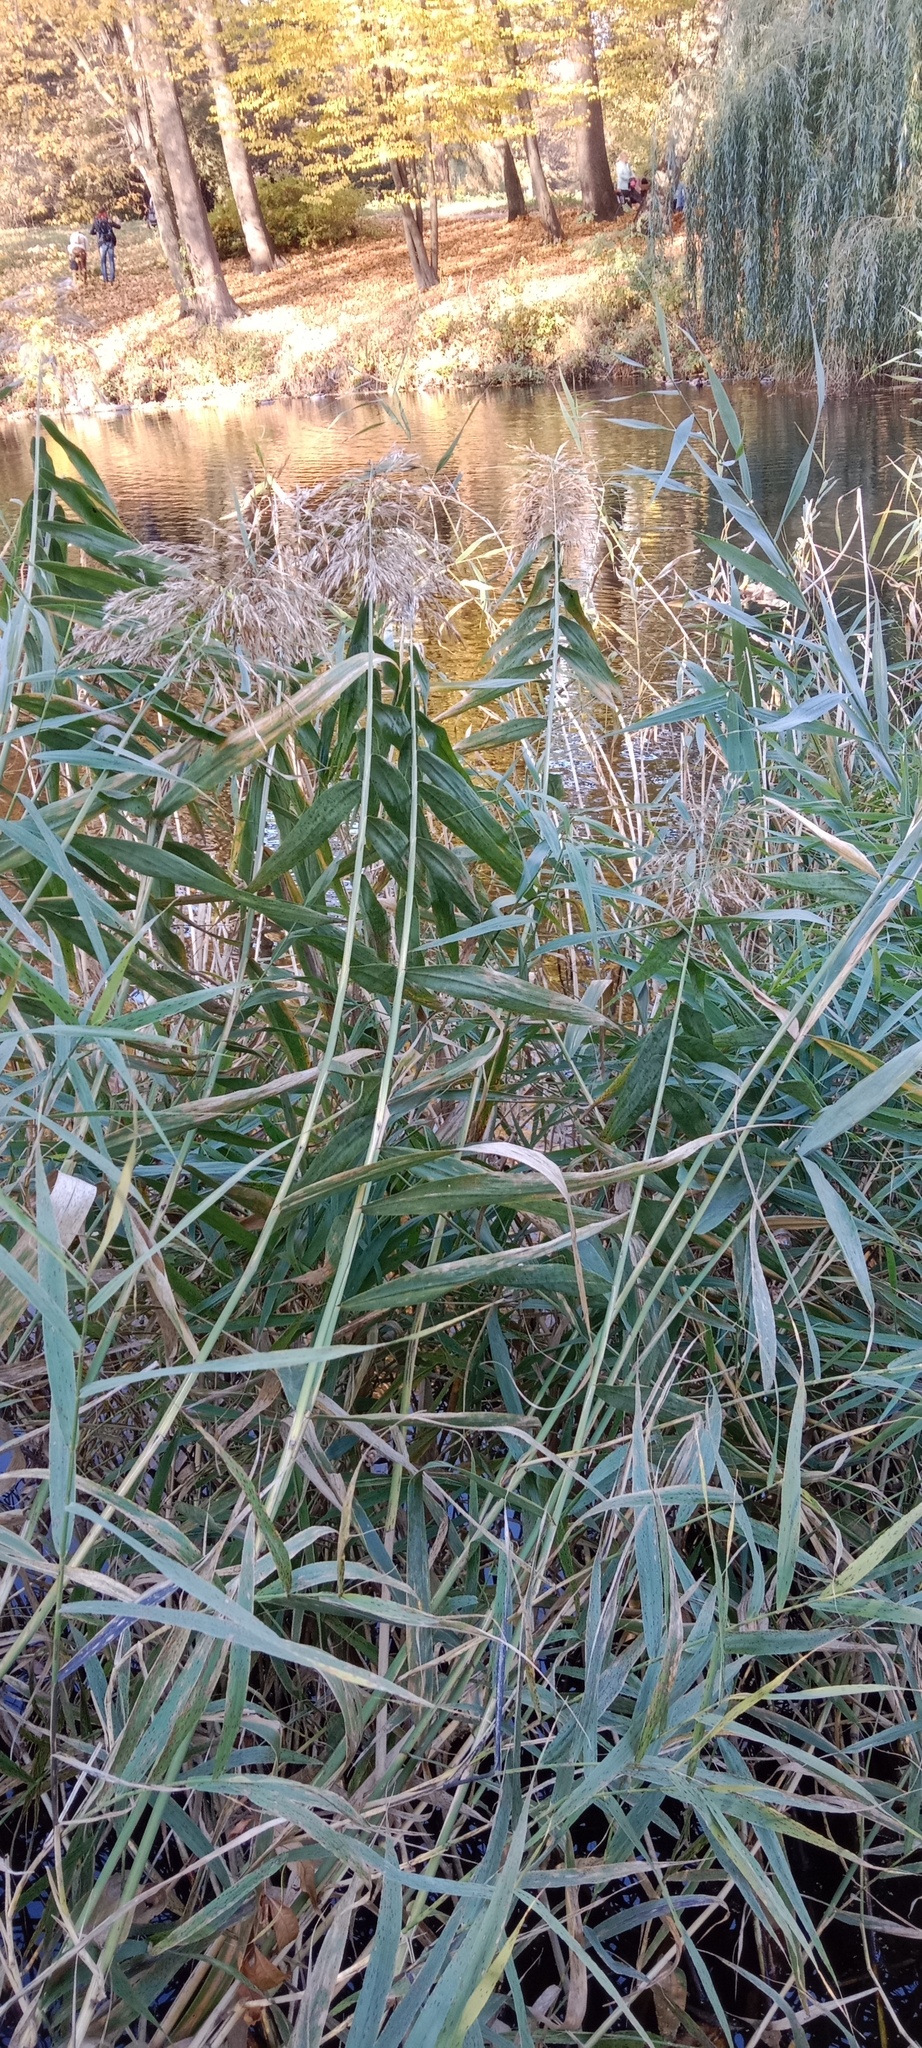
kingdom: Plantae
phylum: Tracheophyta
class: Liliopsida
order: Poales
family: Poaceae
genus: Phragmites
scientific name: Phragmites australis
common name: Common reed
